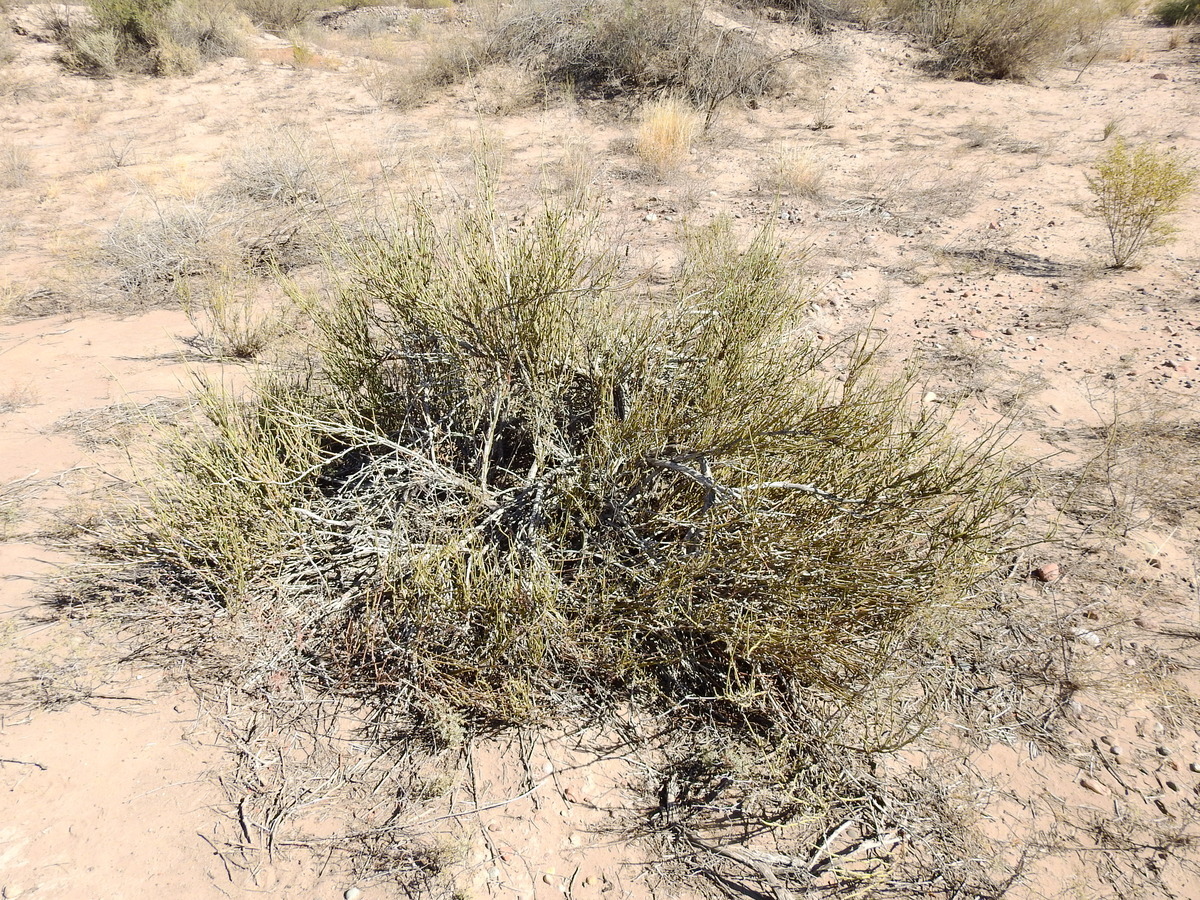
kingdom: Plantae
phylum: Tracheophyta
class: Gnetopsida
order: Ephedrales
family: Ephedraceae
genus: Ephedra
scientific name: Ephedra ochreata
